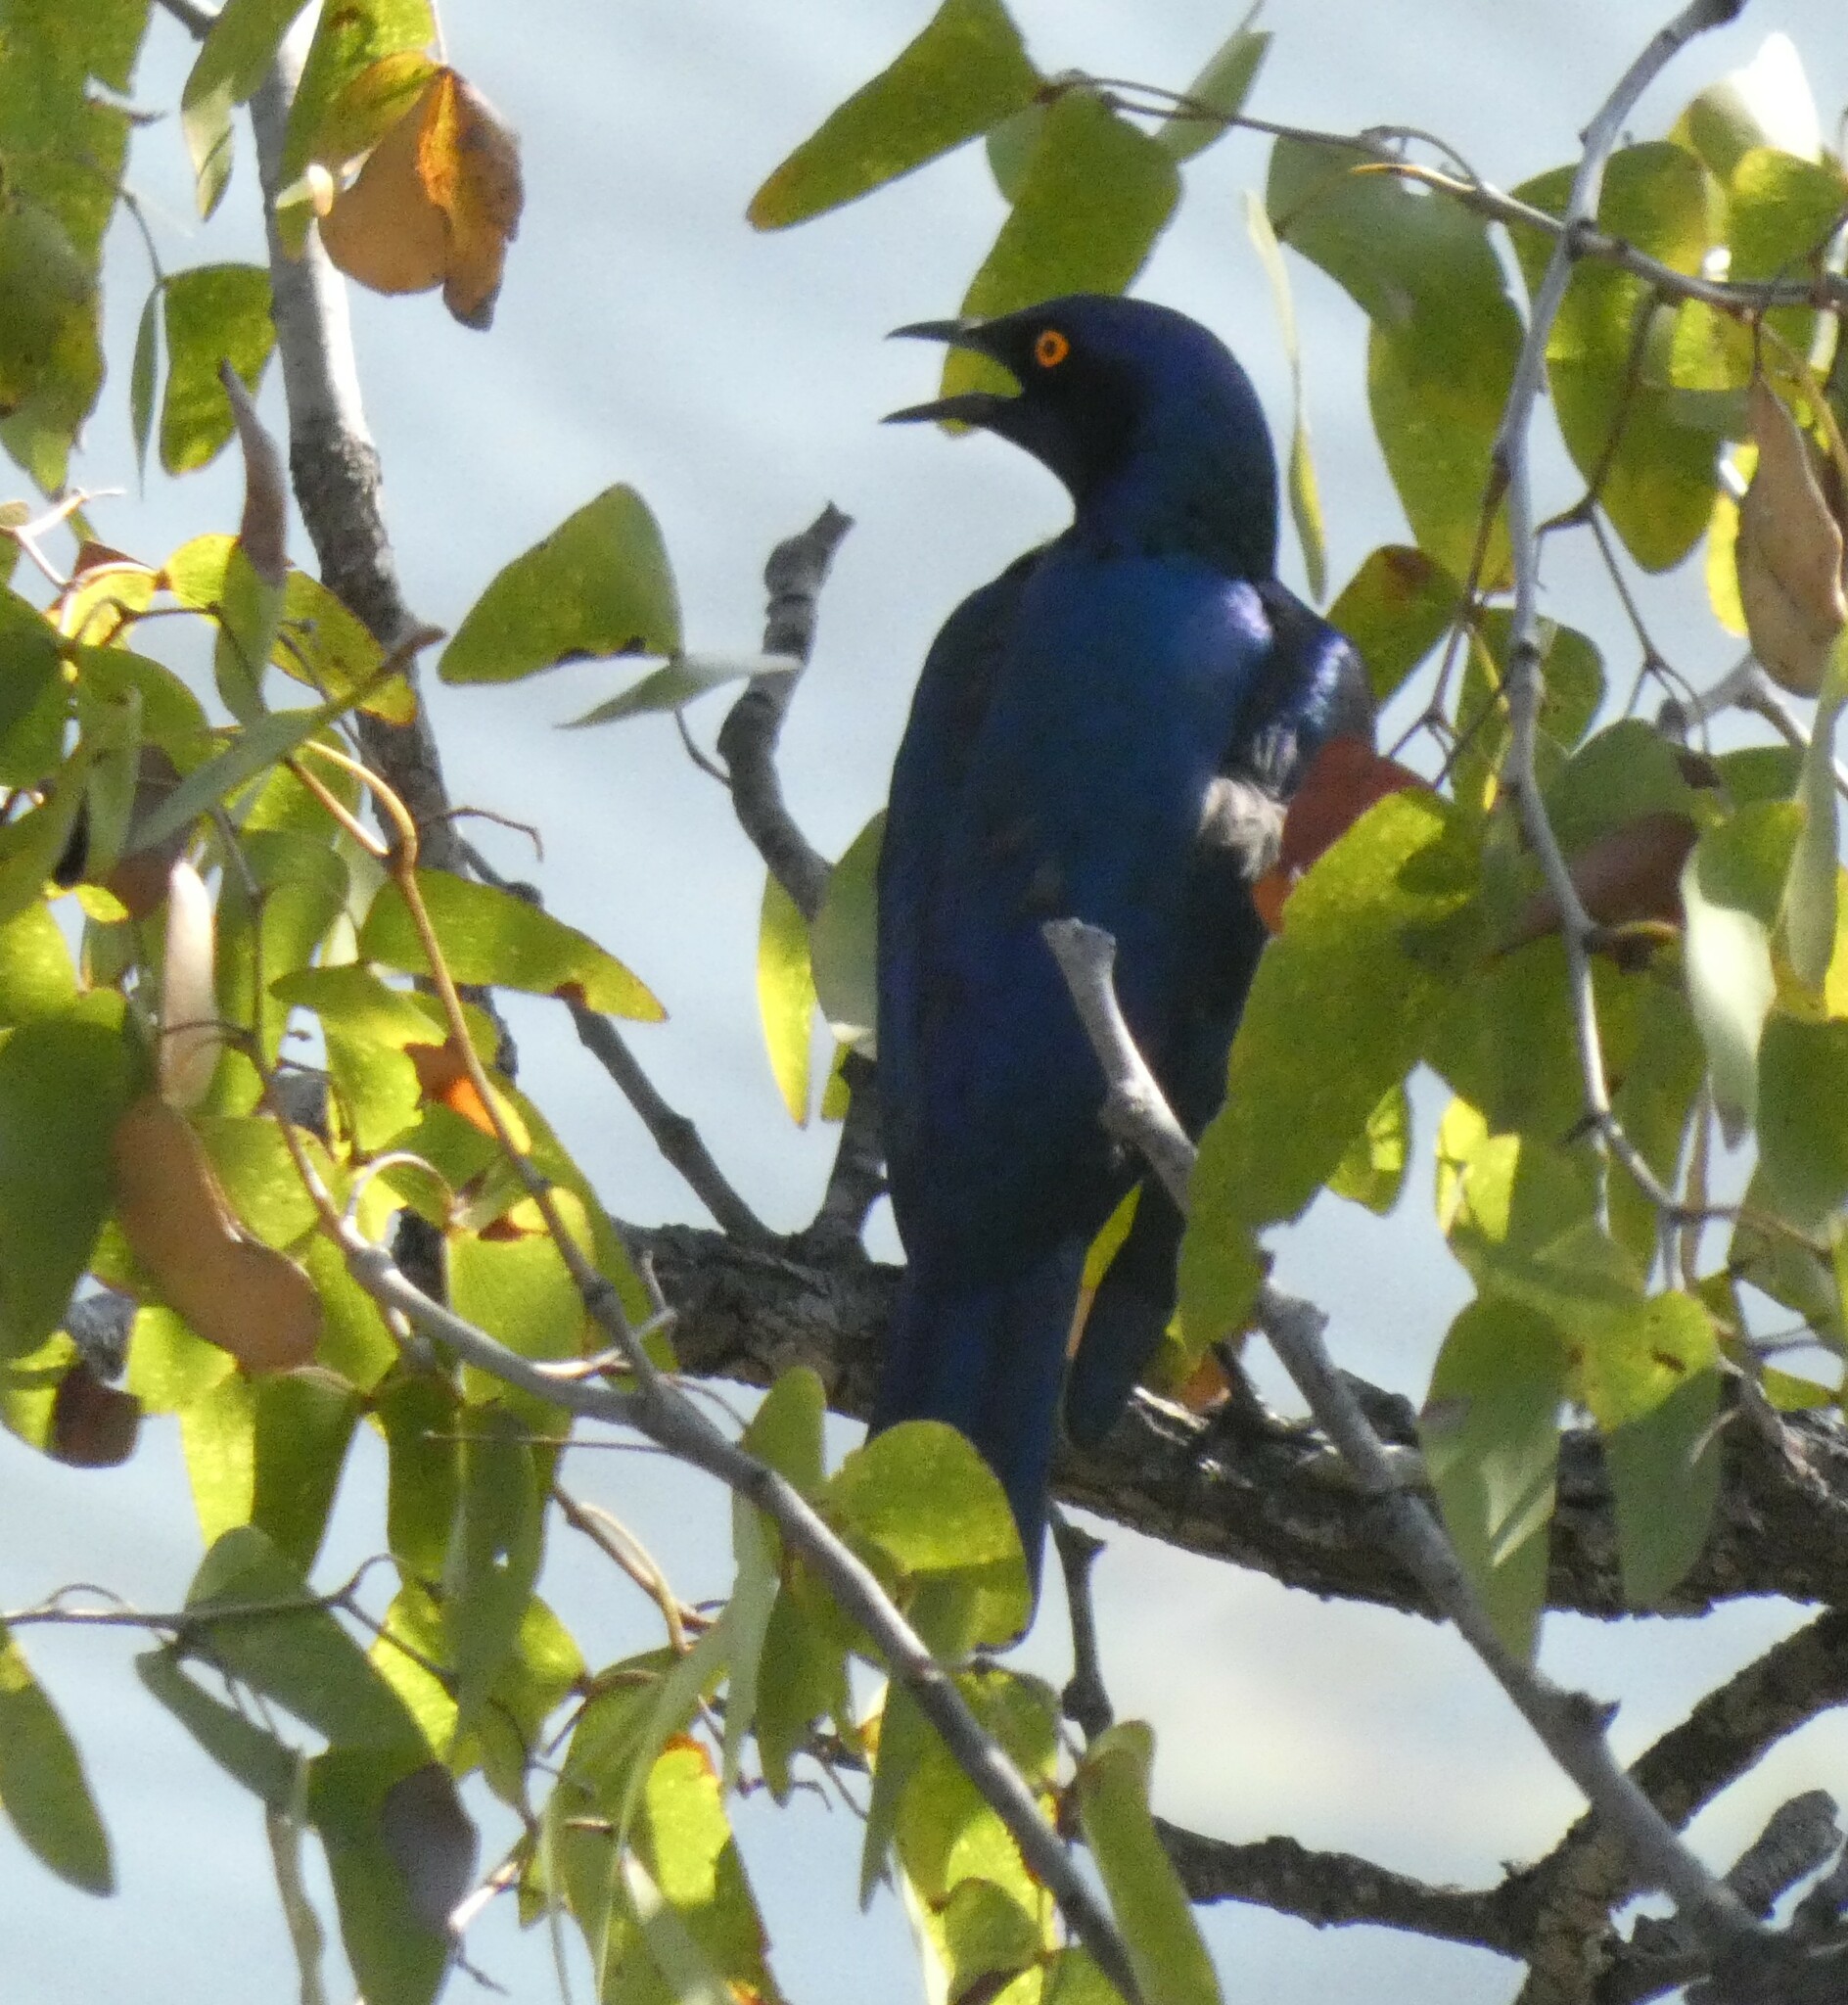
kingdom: Animalia
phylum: Chordata
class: Aves
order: Passeriformes
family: Sturnidae
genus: Lamprotornis
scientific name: Lamprotornis nitens
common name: Cape starling
